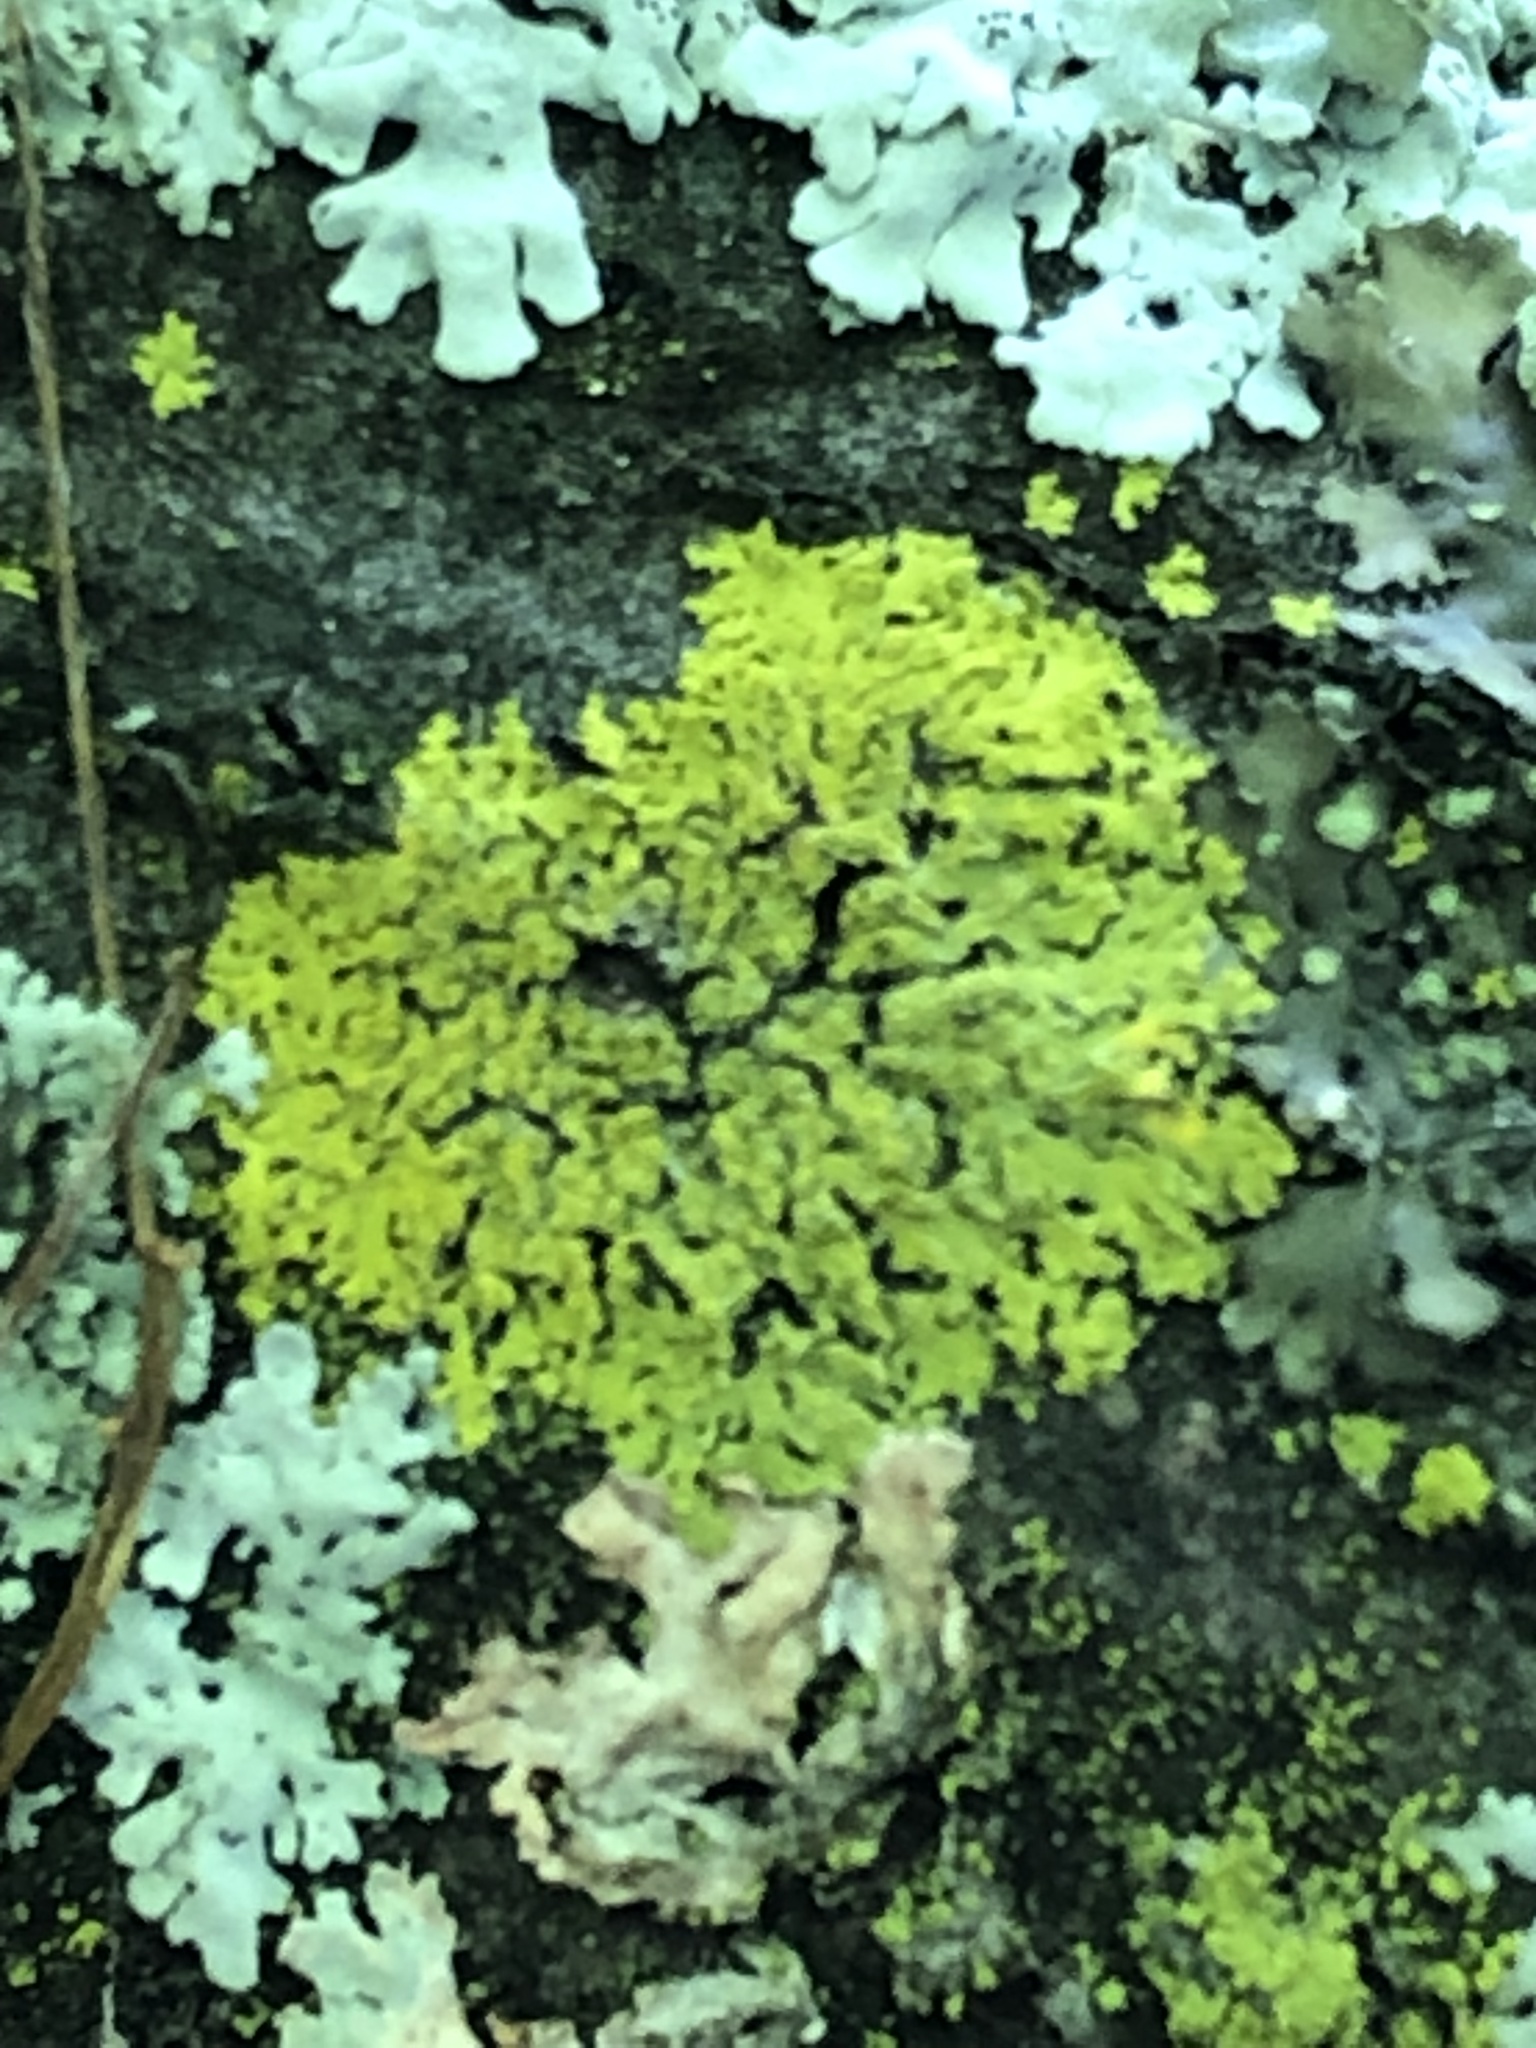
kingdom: Fungi
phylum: Ascomycota
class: Candelariomycetes
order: Candelariales
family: Candelariaceae
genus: Candelaria
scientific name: Candelaria concolor
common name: Candleflame lichen
